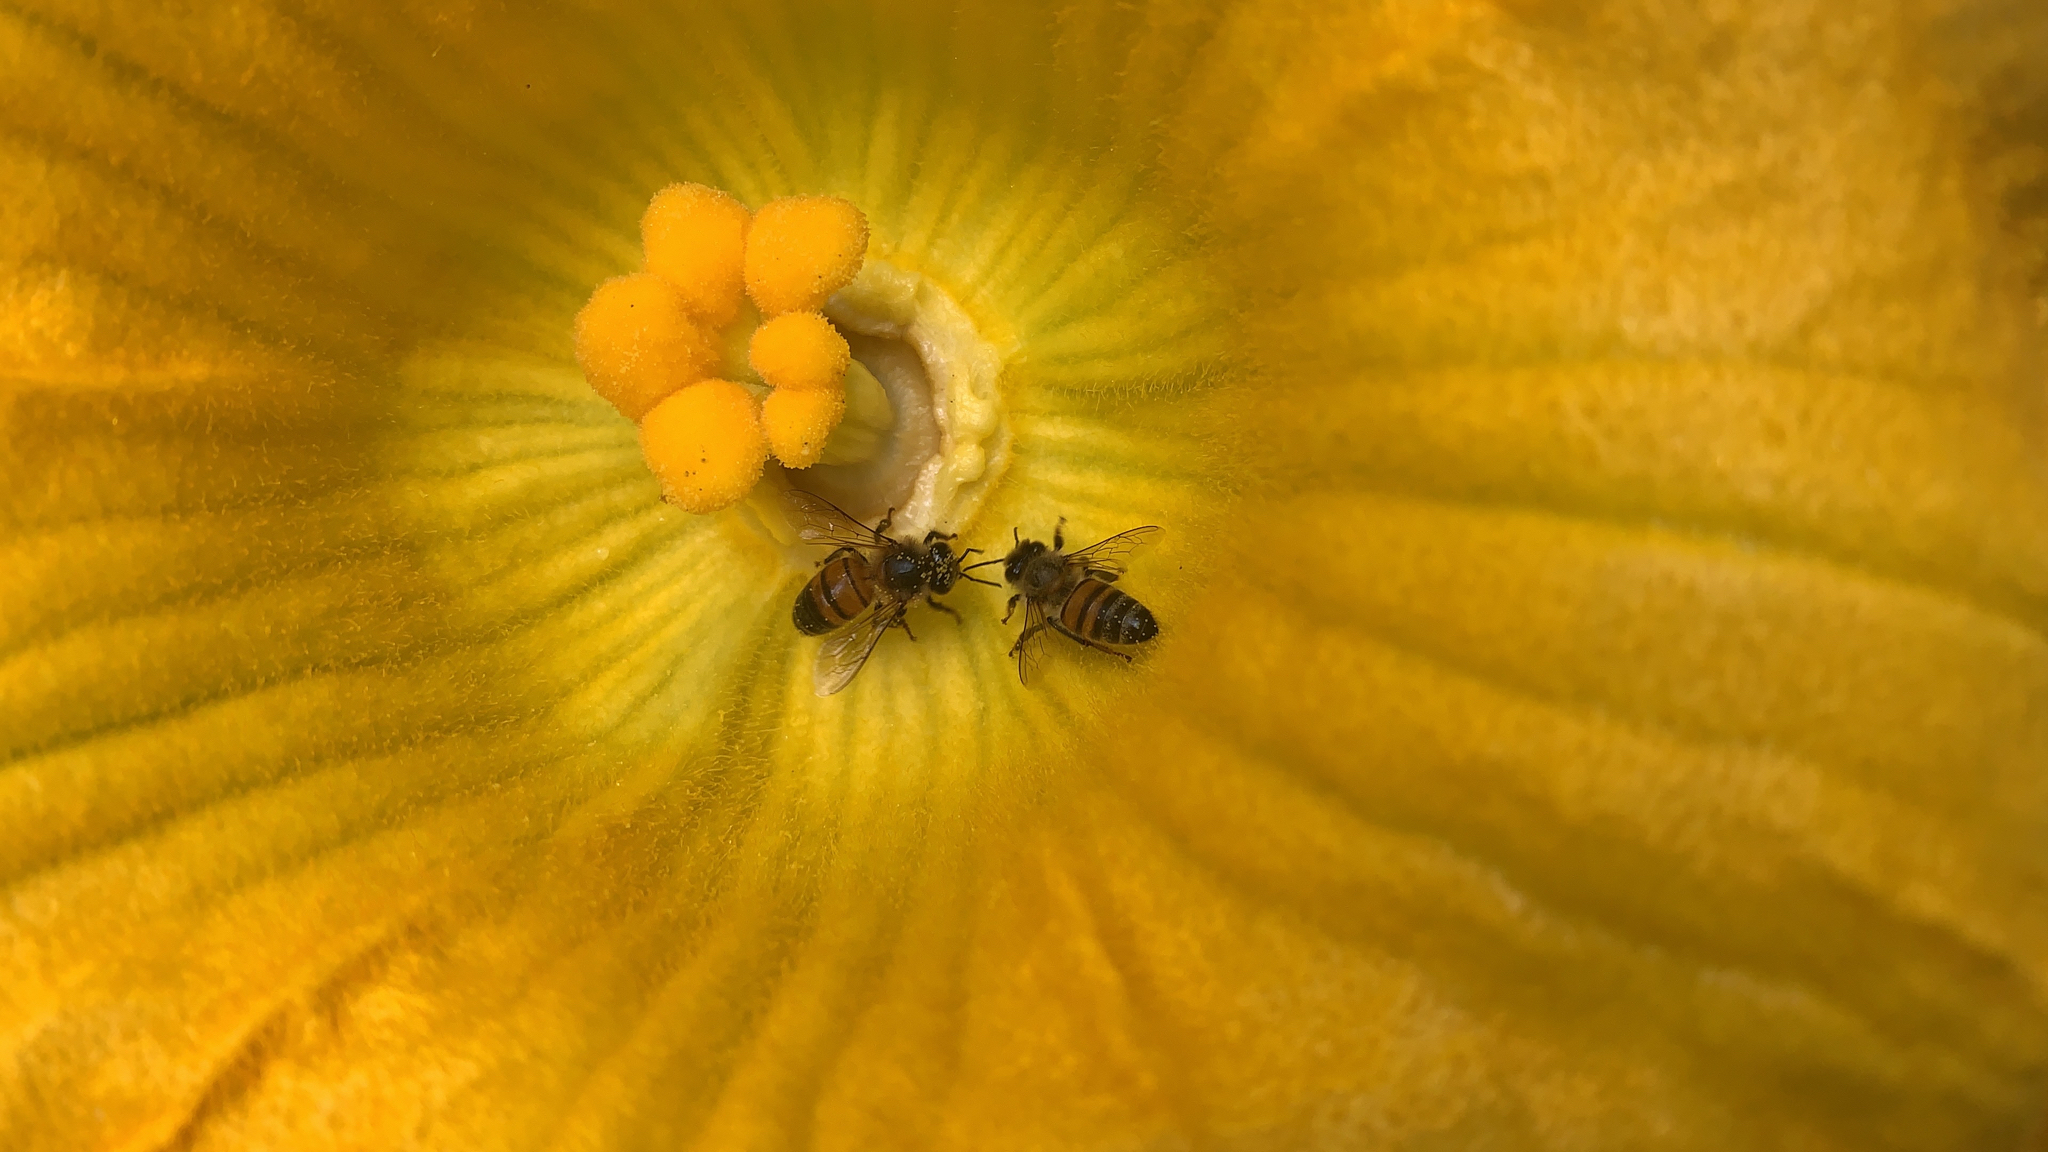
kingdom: Animalia
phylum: Arthropoda
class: Insecta
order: Hymenoptera
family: Apidae
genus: Apis
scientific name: Apis mellifera
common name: Honey bee
